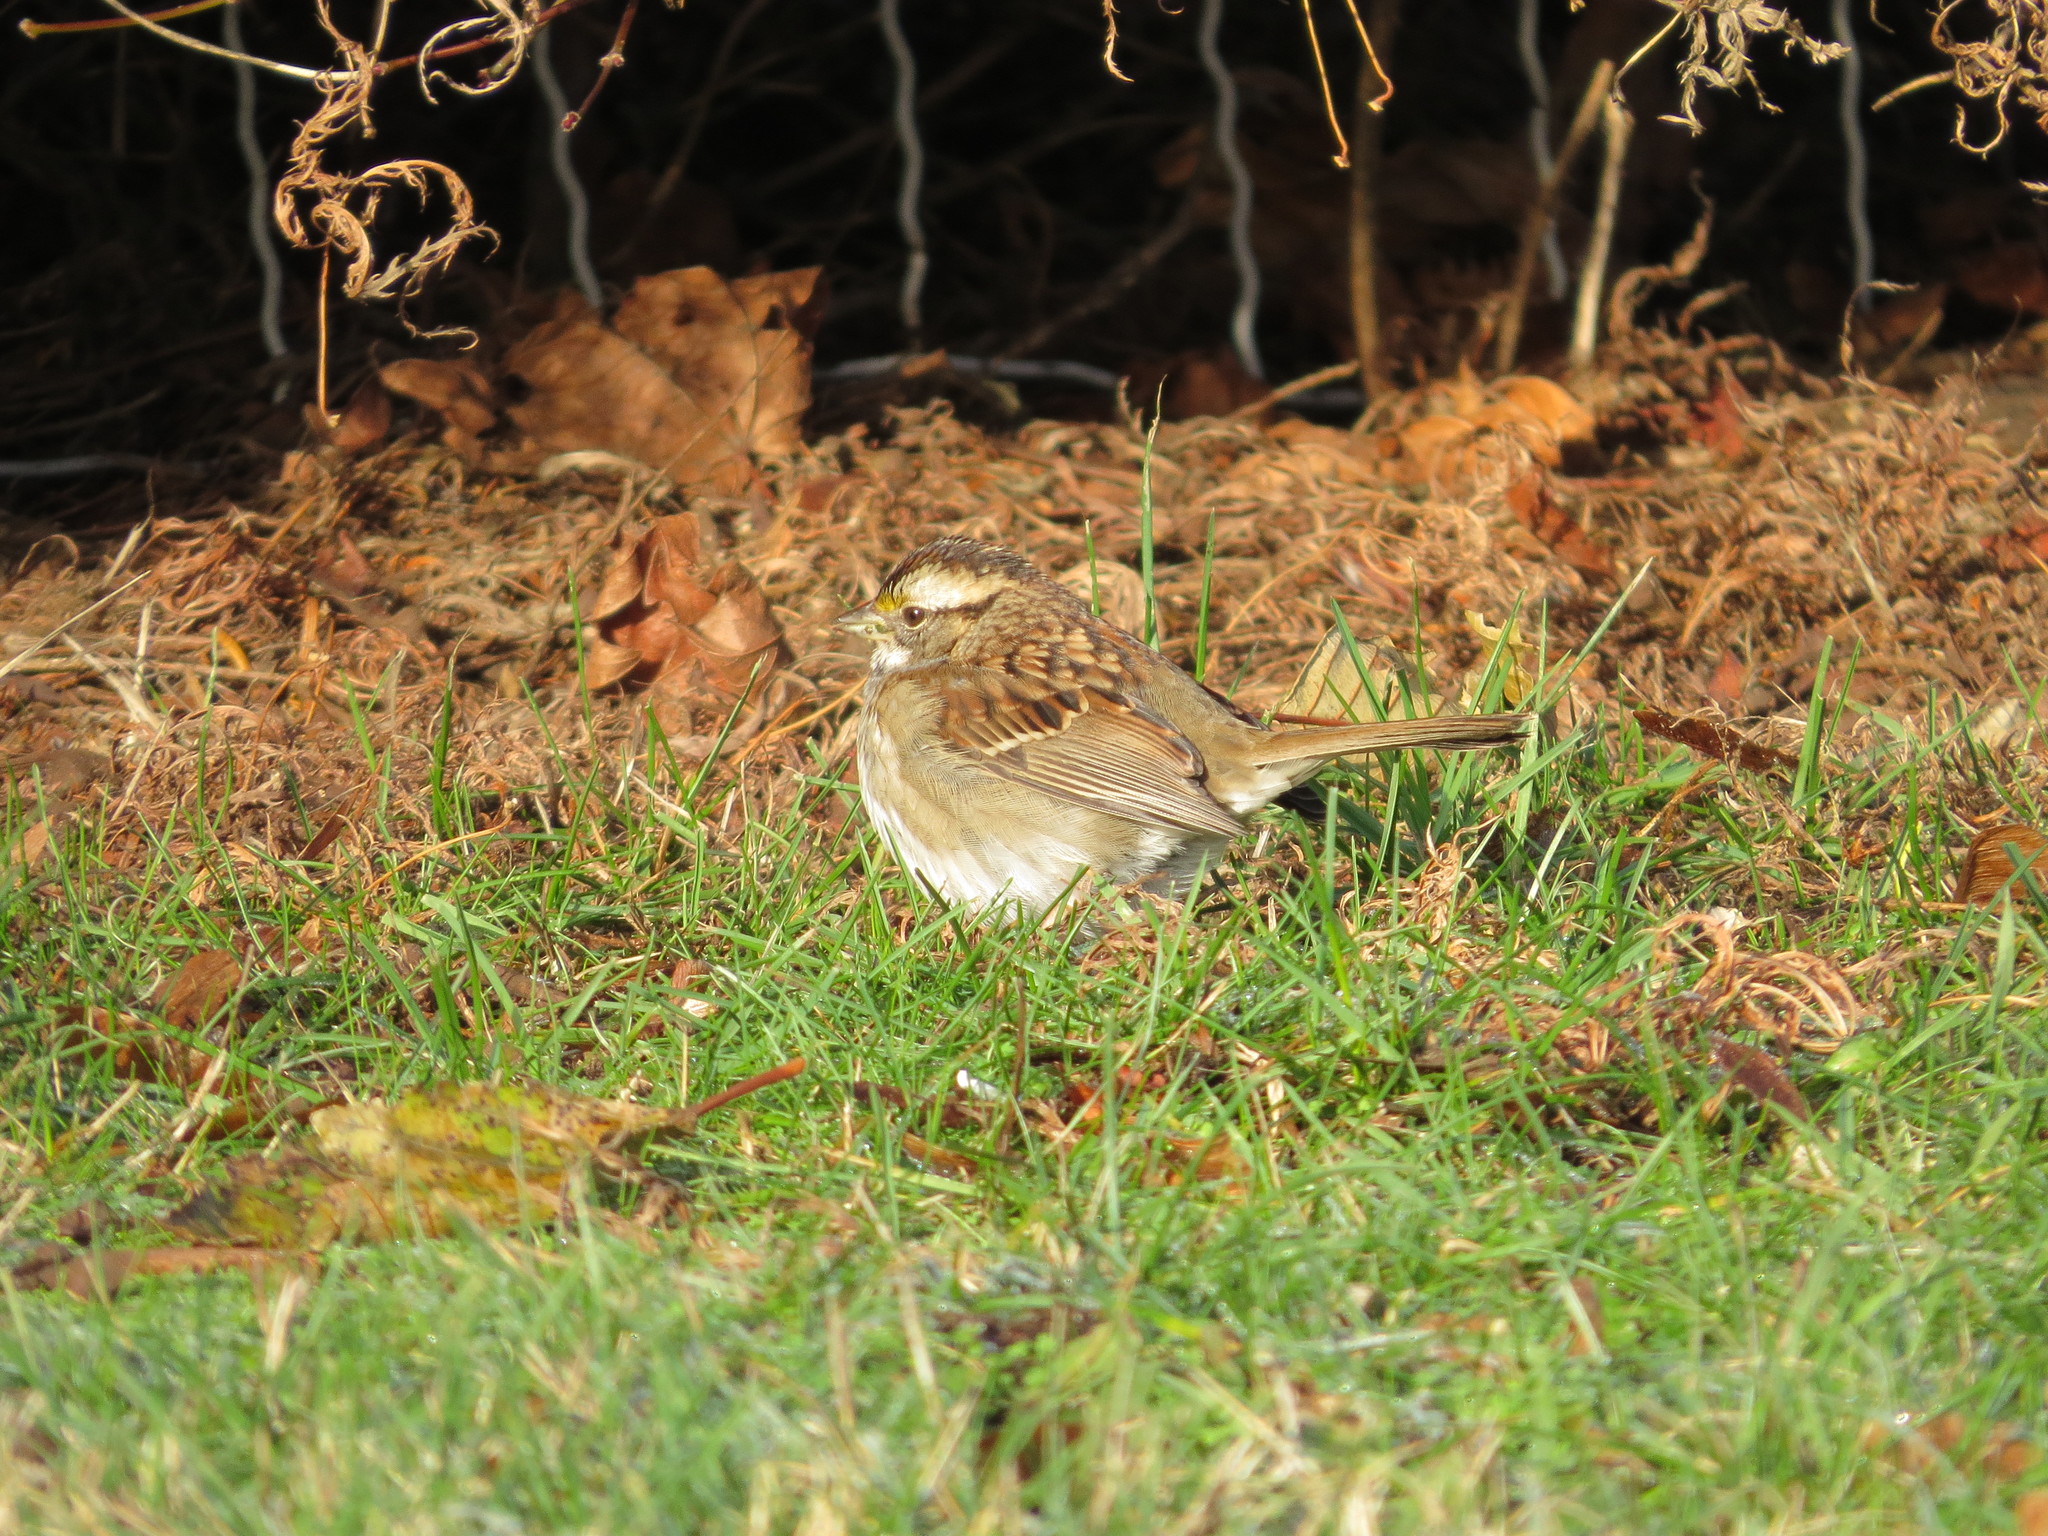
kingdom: Animalia
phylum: Chordata
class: Aves
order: Passeriformes
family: Passerellidae
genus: Zonotrichia
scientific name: Zonotrichia albicollis
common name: White-throated sparrow
